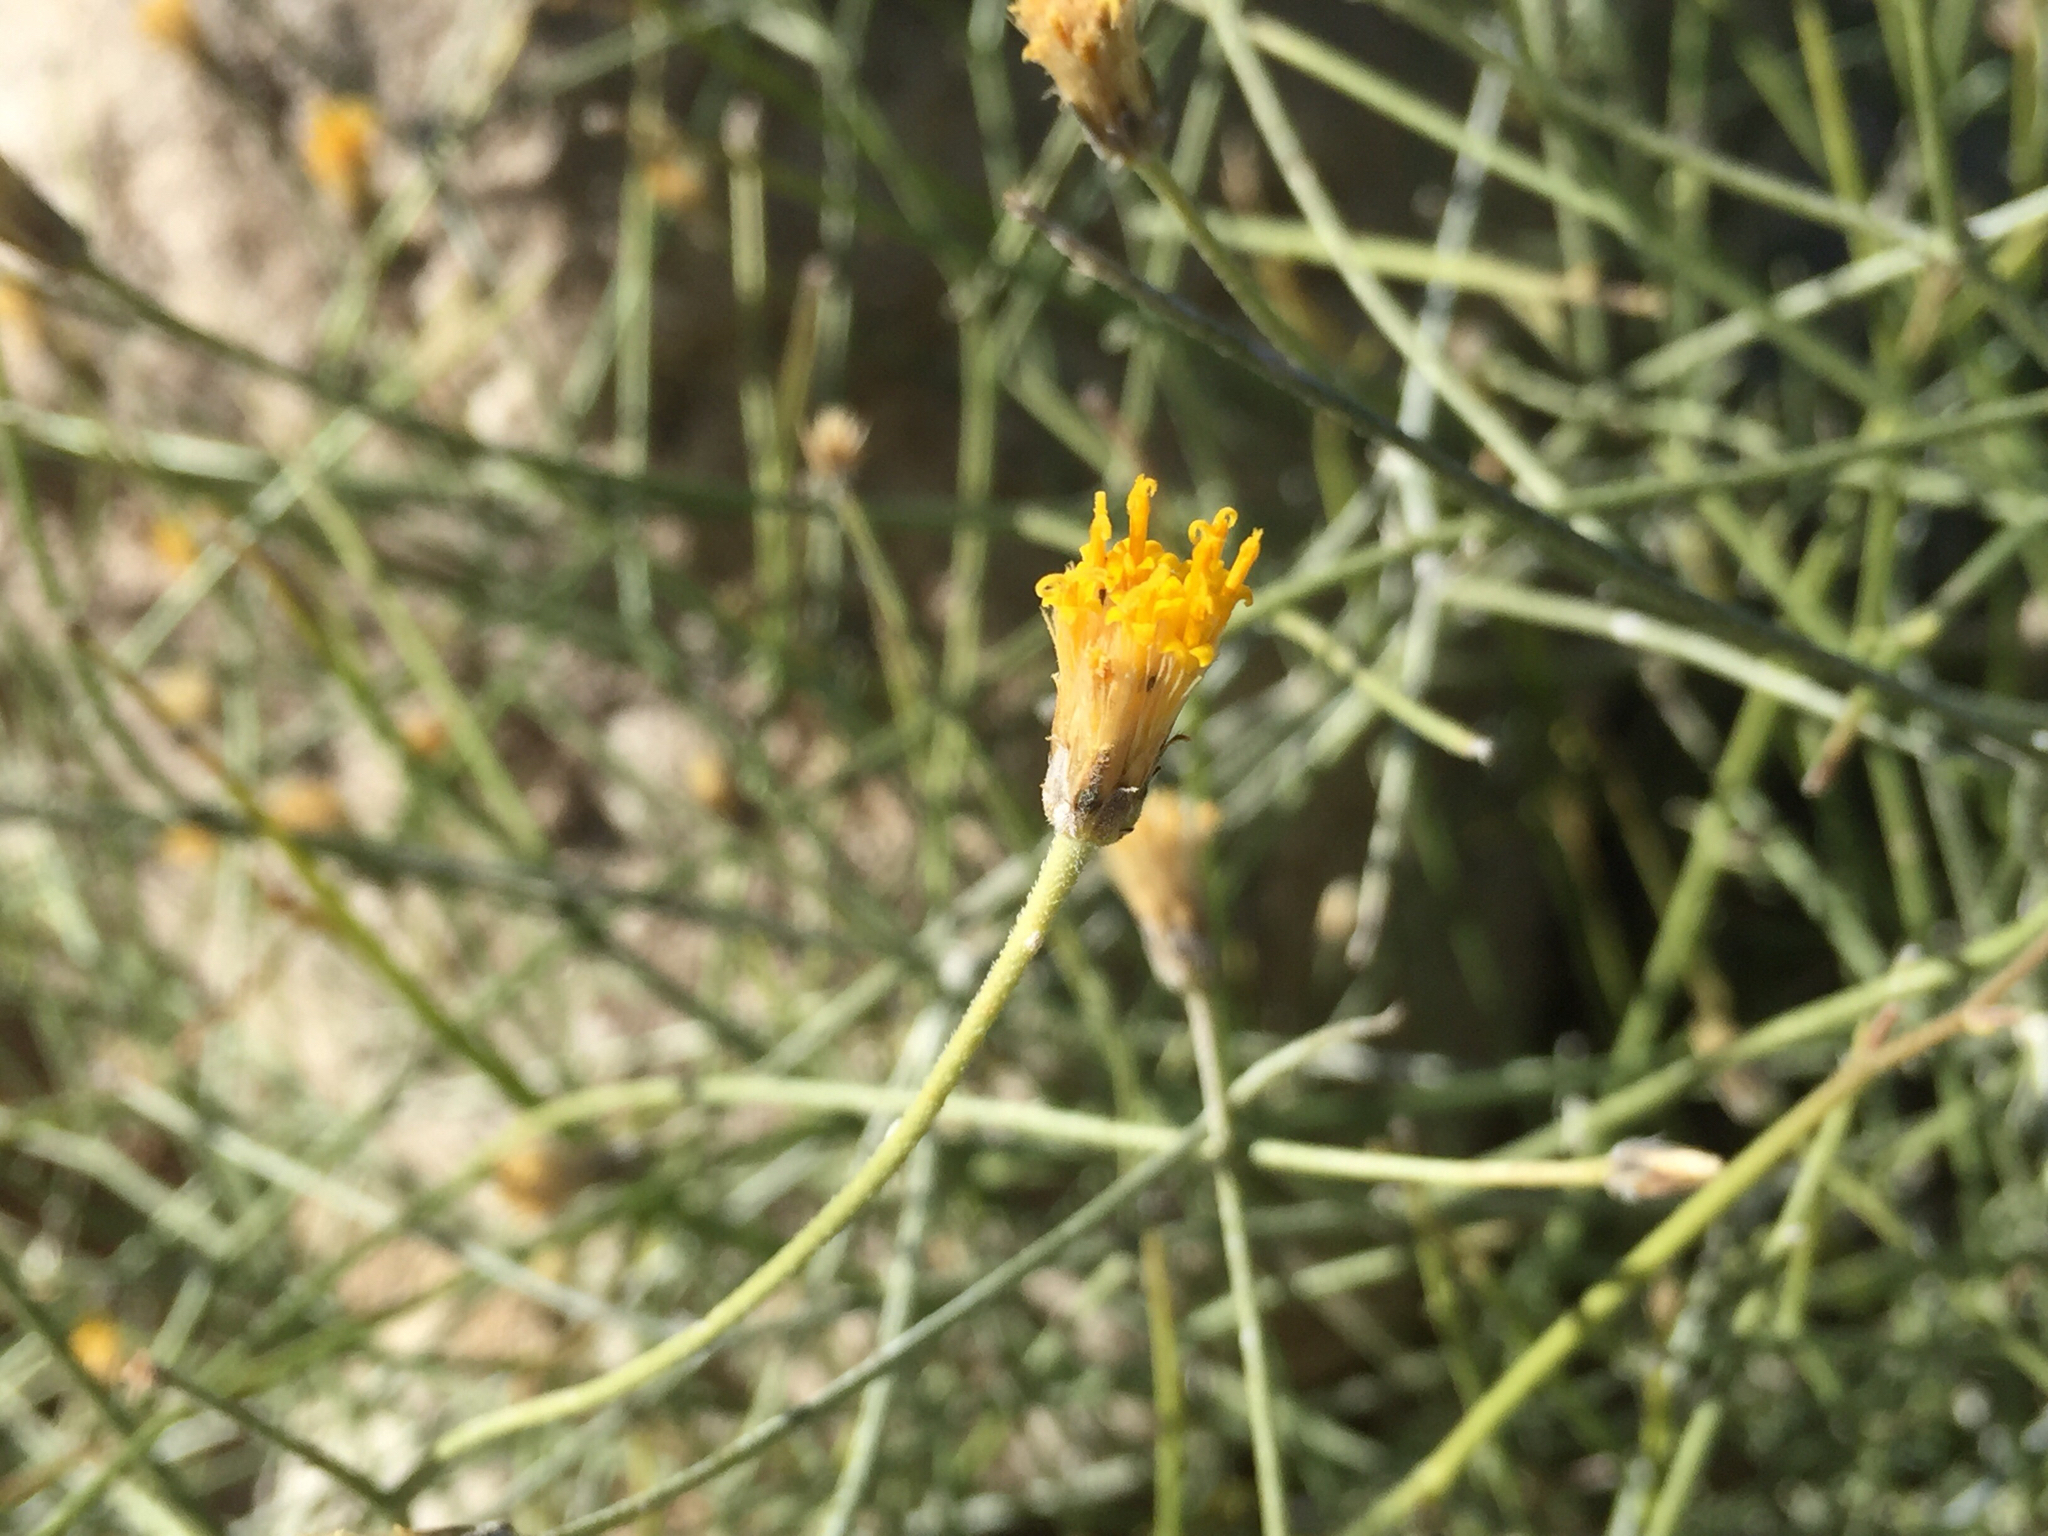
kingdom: Plantae
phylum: Tracheophyta
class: Magnoliopsida
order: Asterales
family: Asteraceae
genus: Bebbia
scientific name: Bebbia juncea
